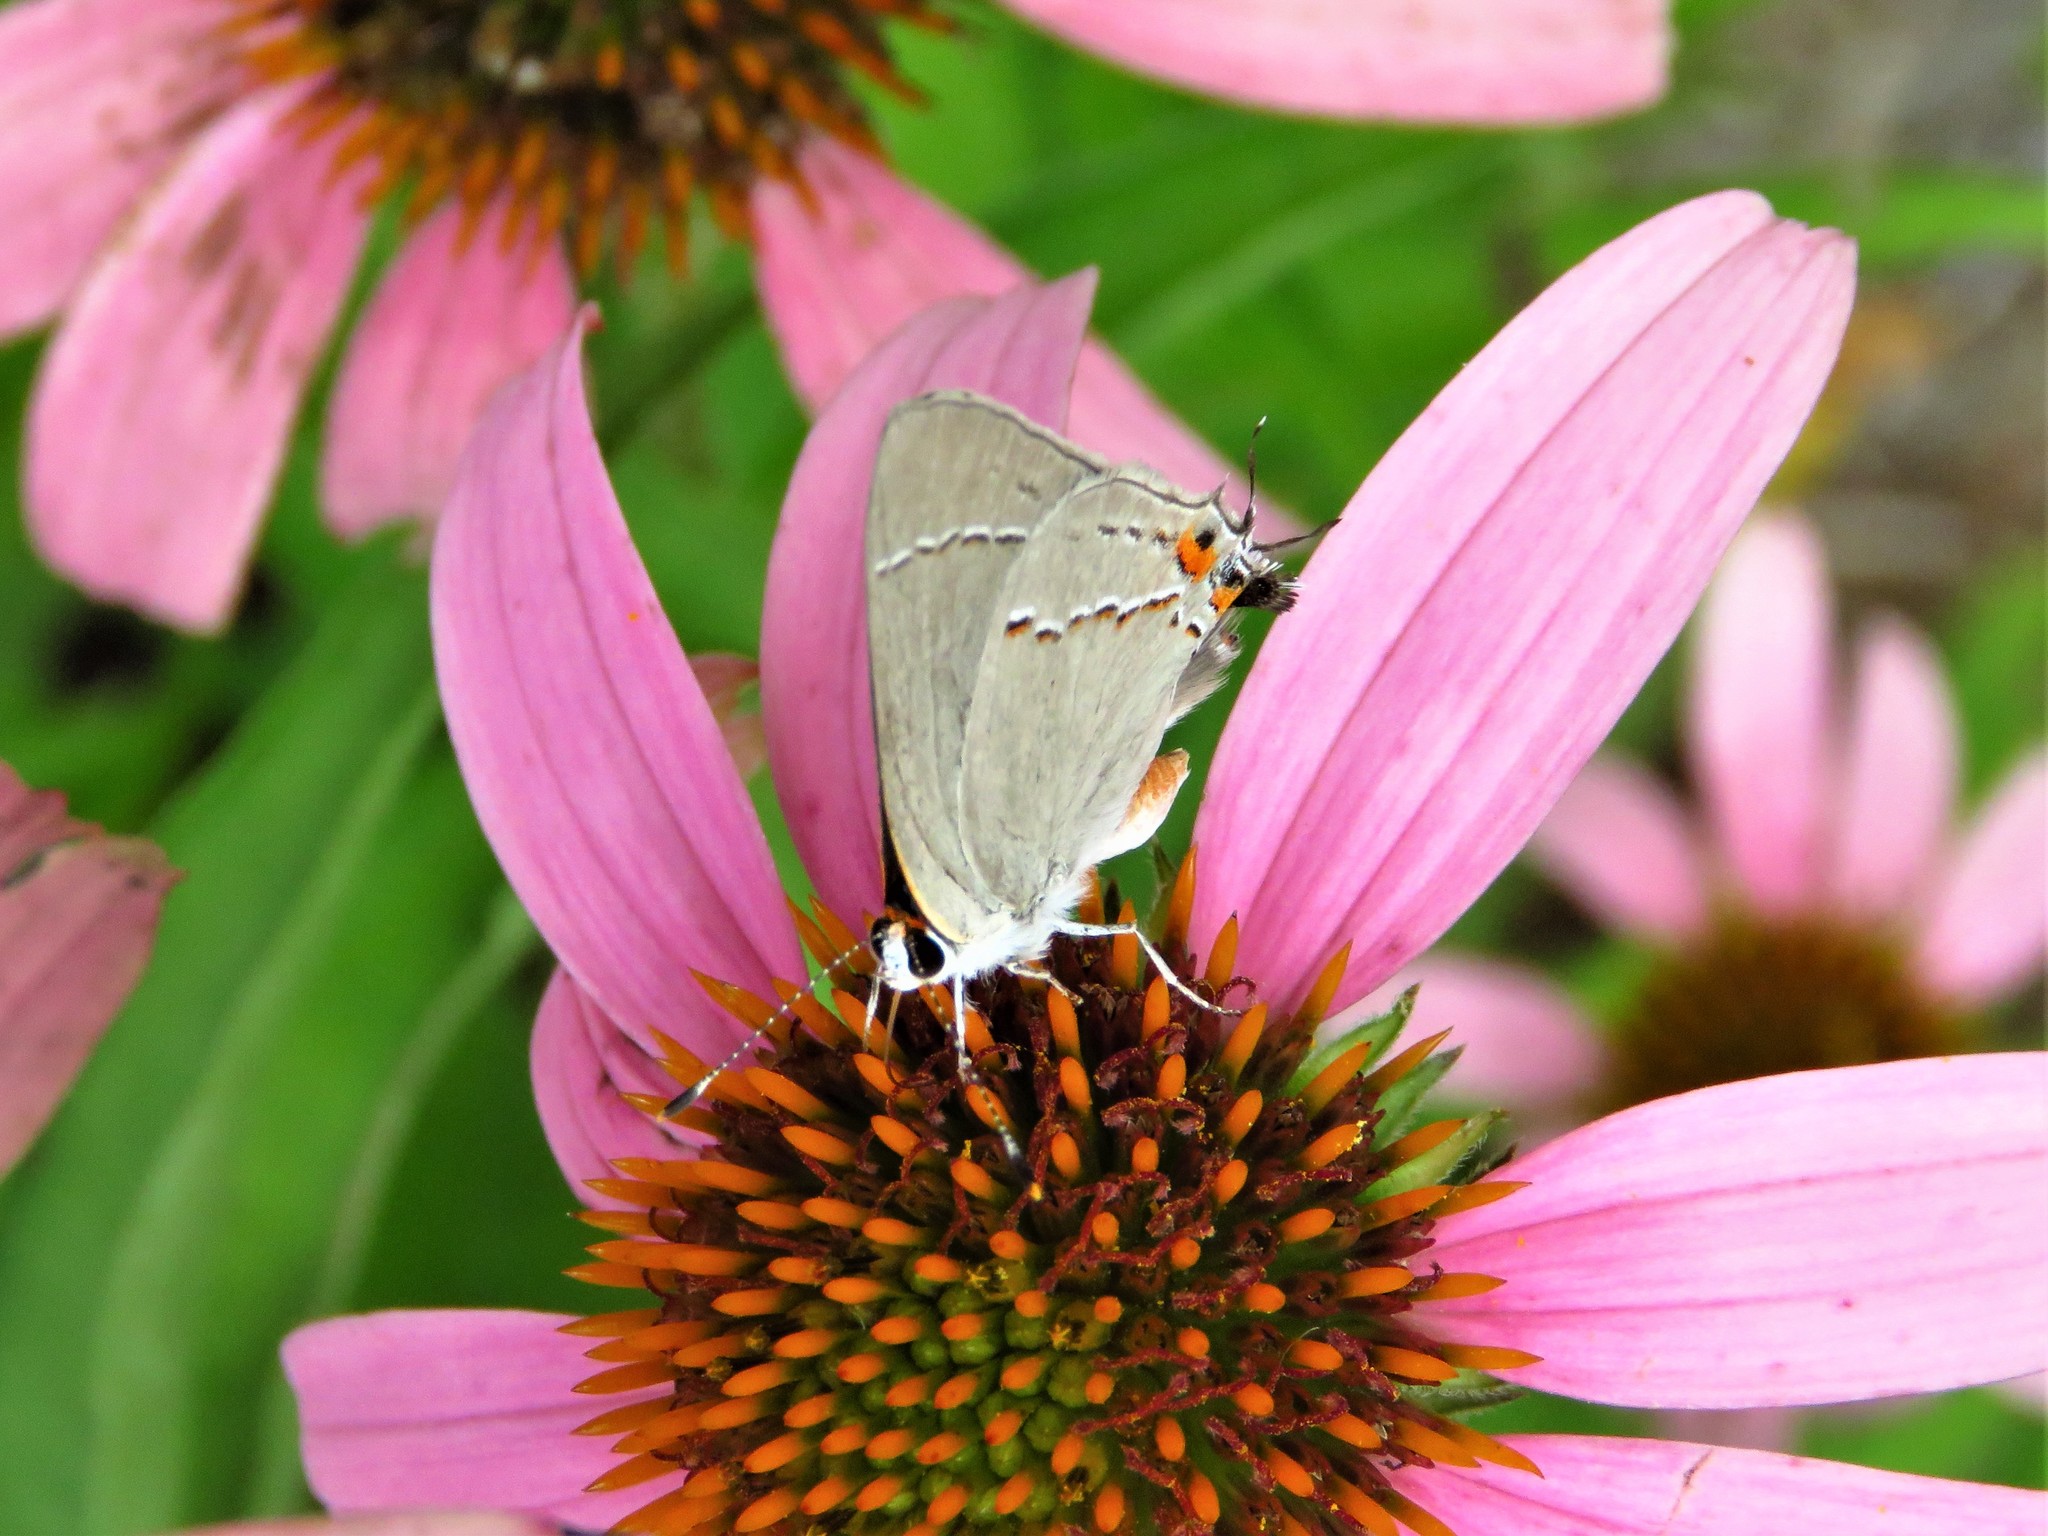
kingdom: Animalia
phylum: Arthropoda
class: Insecta
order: Lepidoptera
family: Lycaenidae
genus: Strymon
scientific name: Strymon melinus
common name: Gray hairstreak
